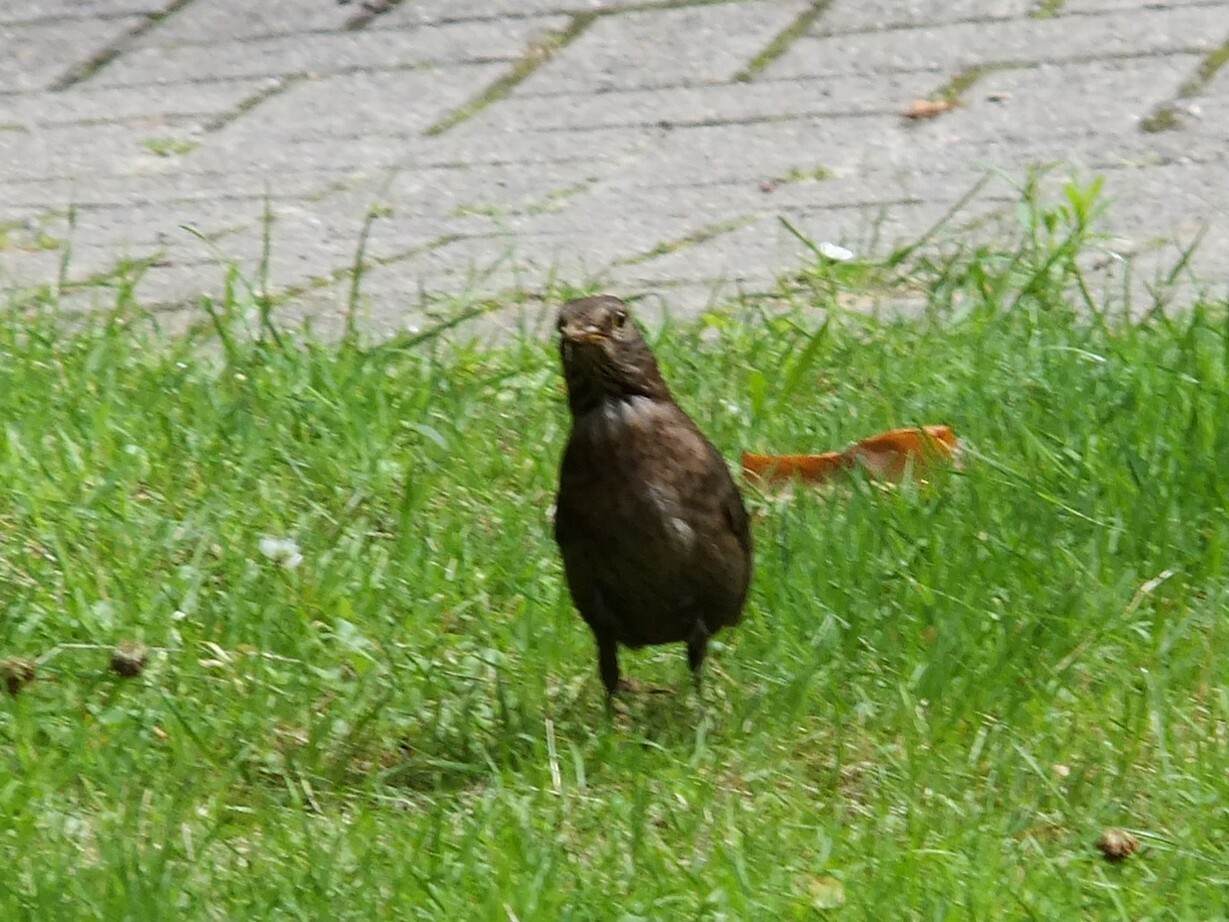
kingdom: Animalia
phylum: Chordata
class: Aves
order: Passeriformes
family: Turdidae
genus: Turdus
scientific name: Turdus merula
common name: Common blackbird
